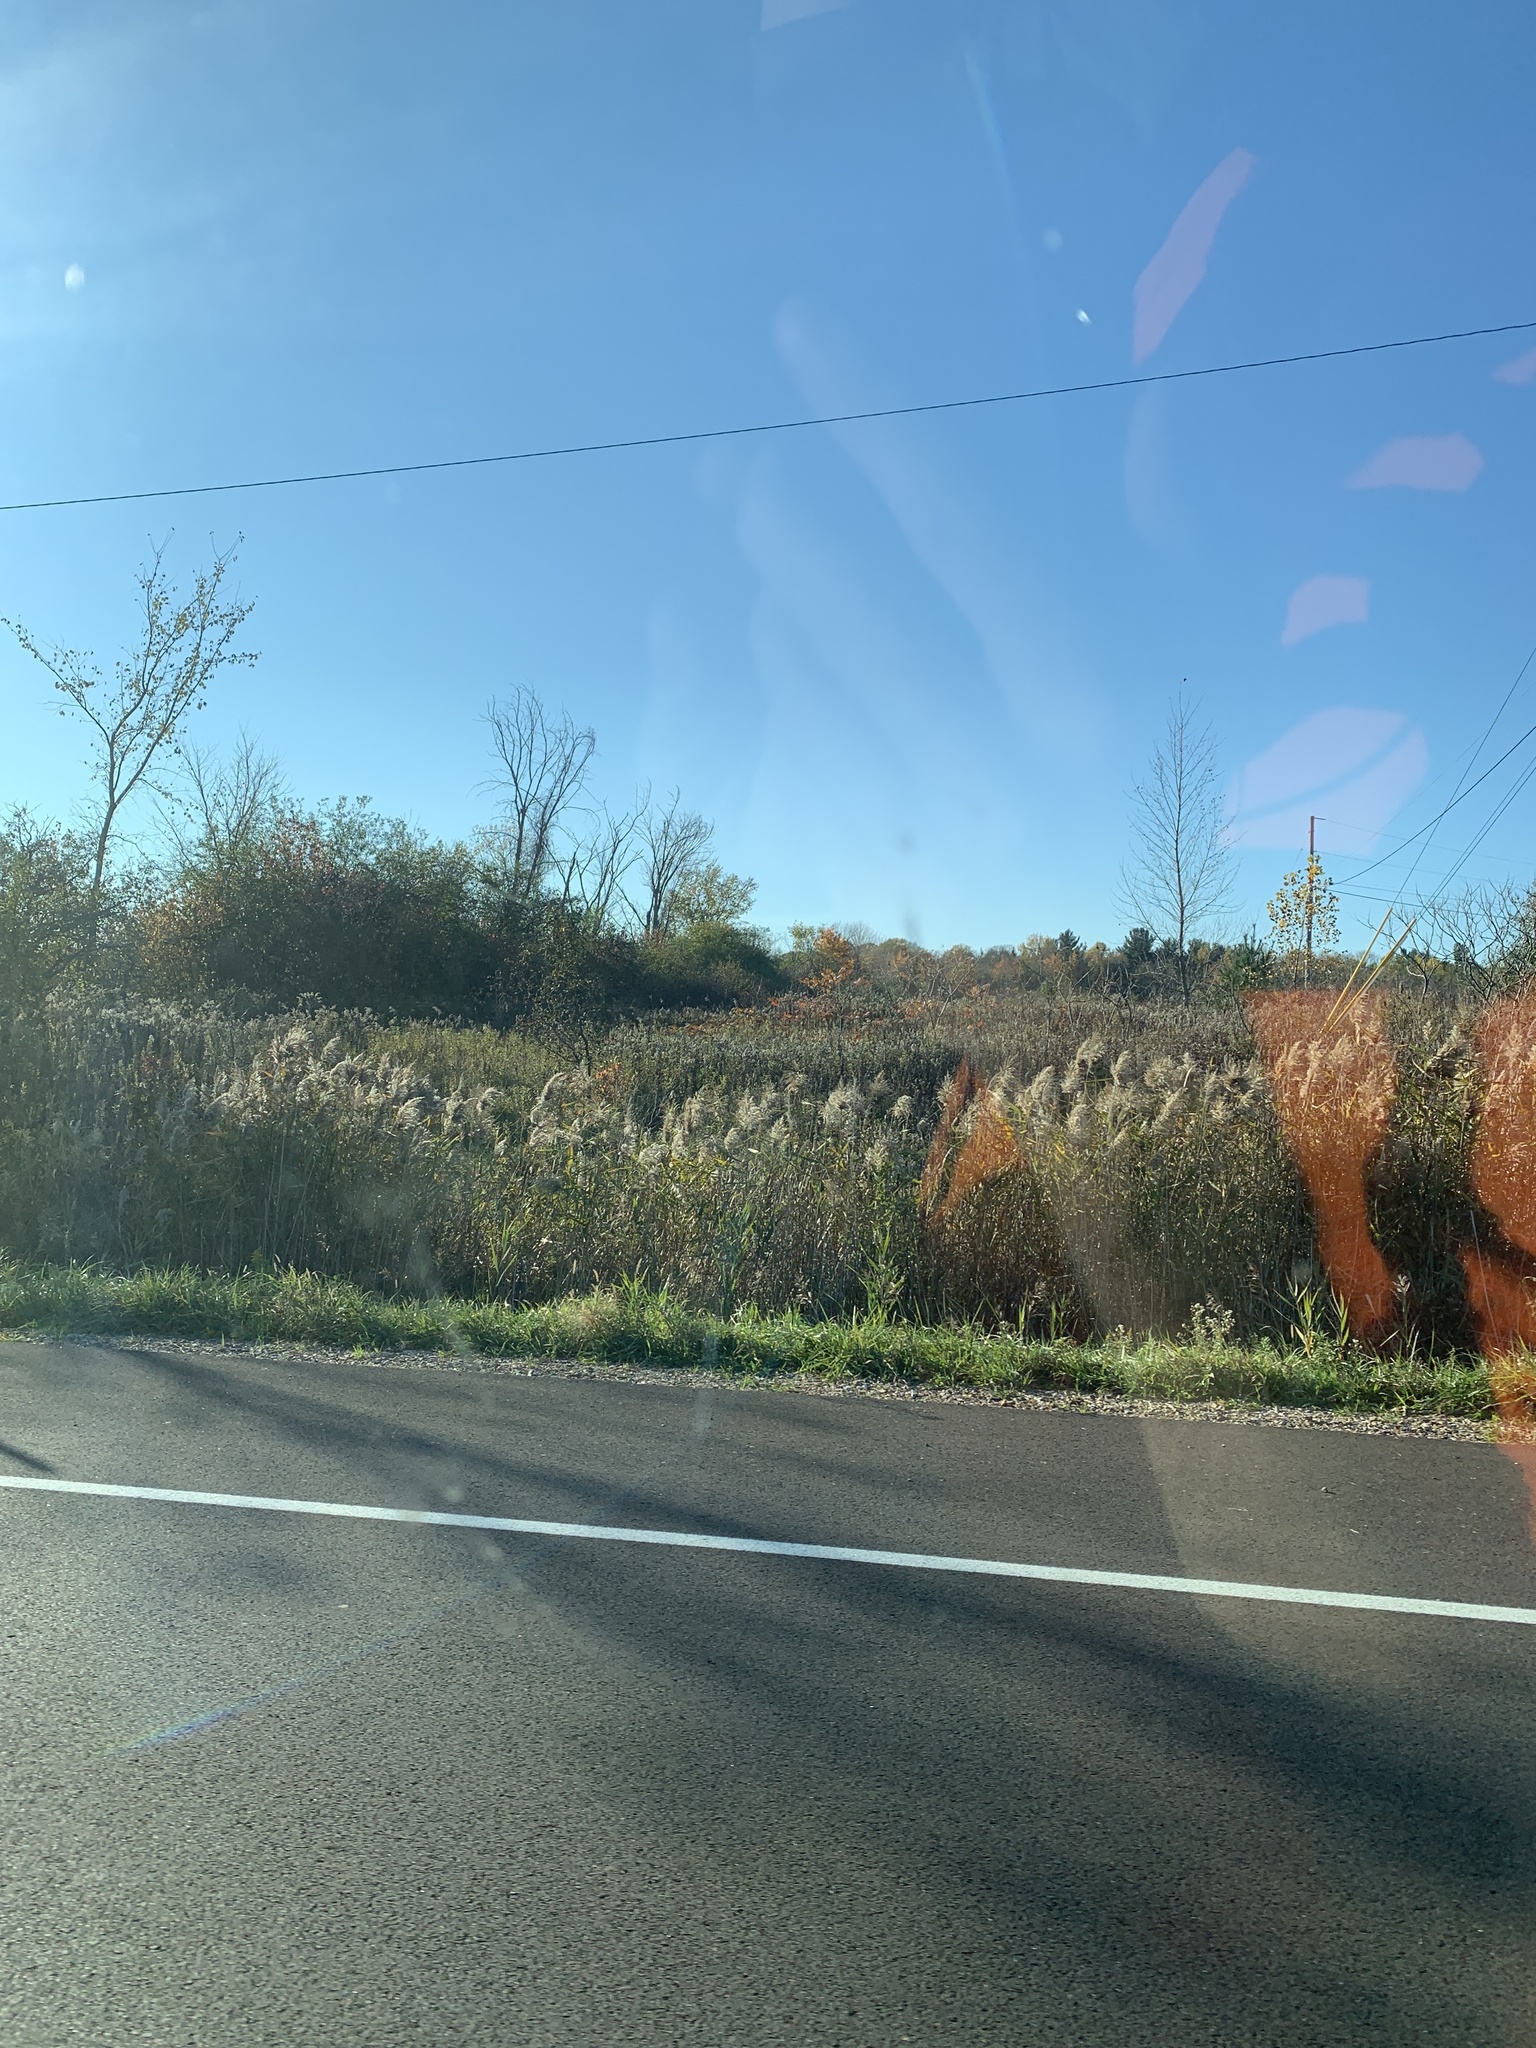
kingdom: Plantae
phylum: Tracheophyta
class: Liliopsida
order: Poales
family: Poaceae
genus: Phragmites
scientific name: Phragmites australis
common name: Common reed
